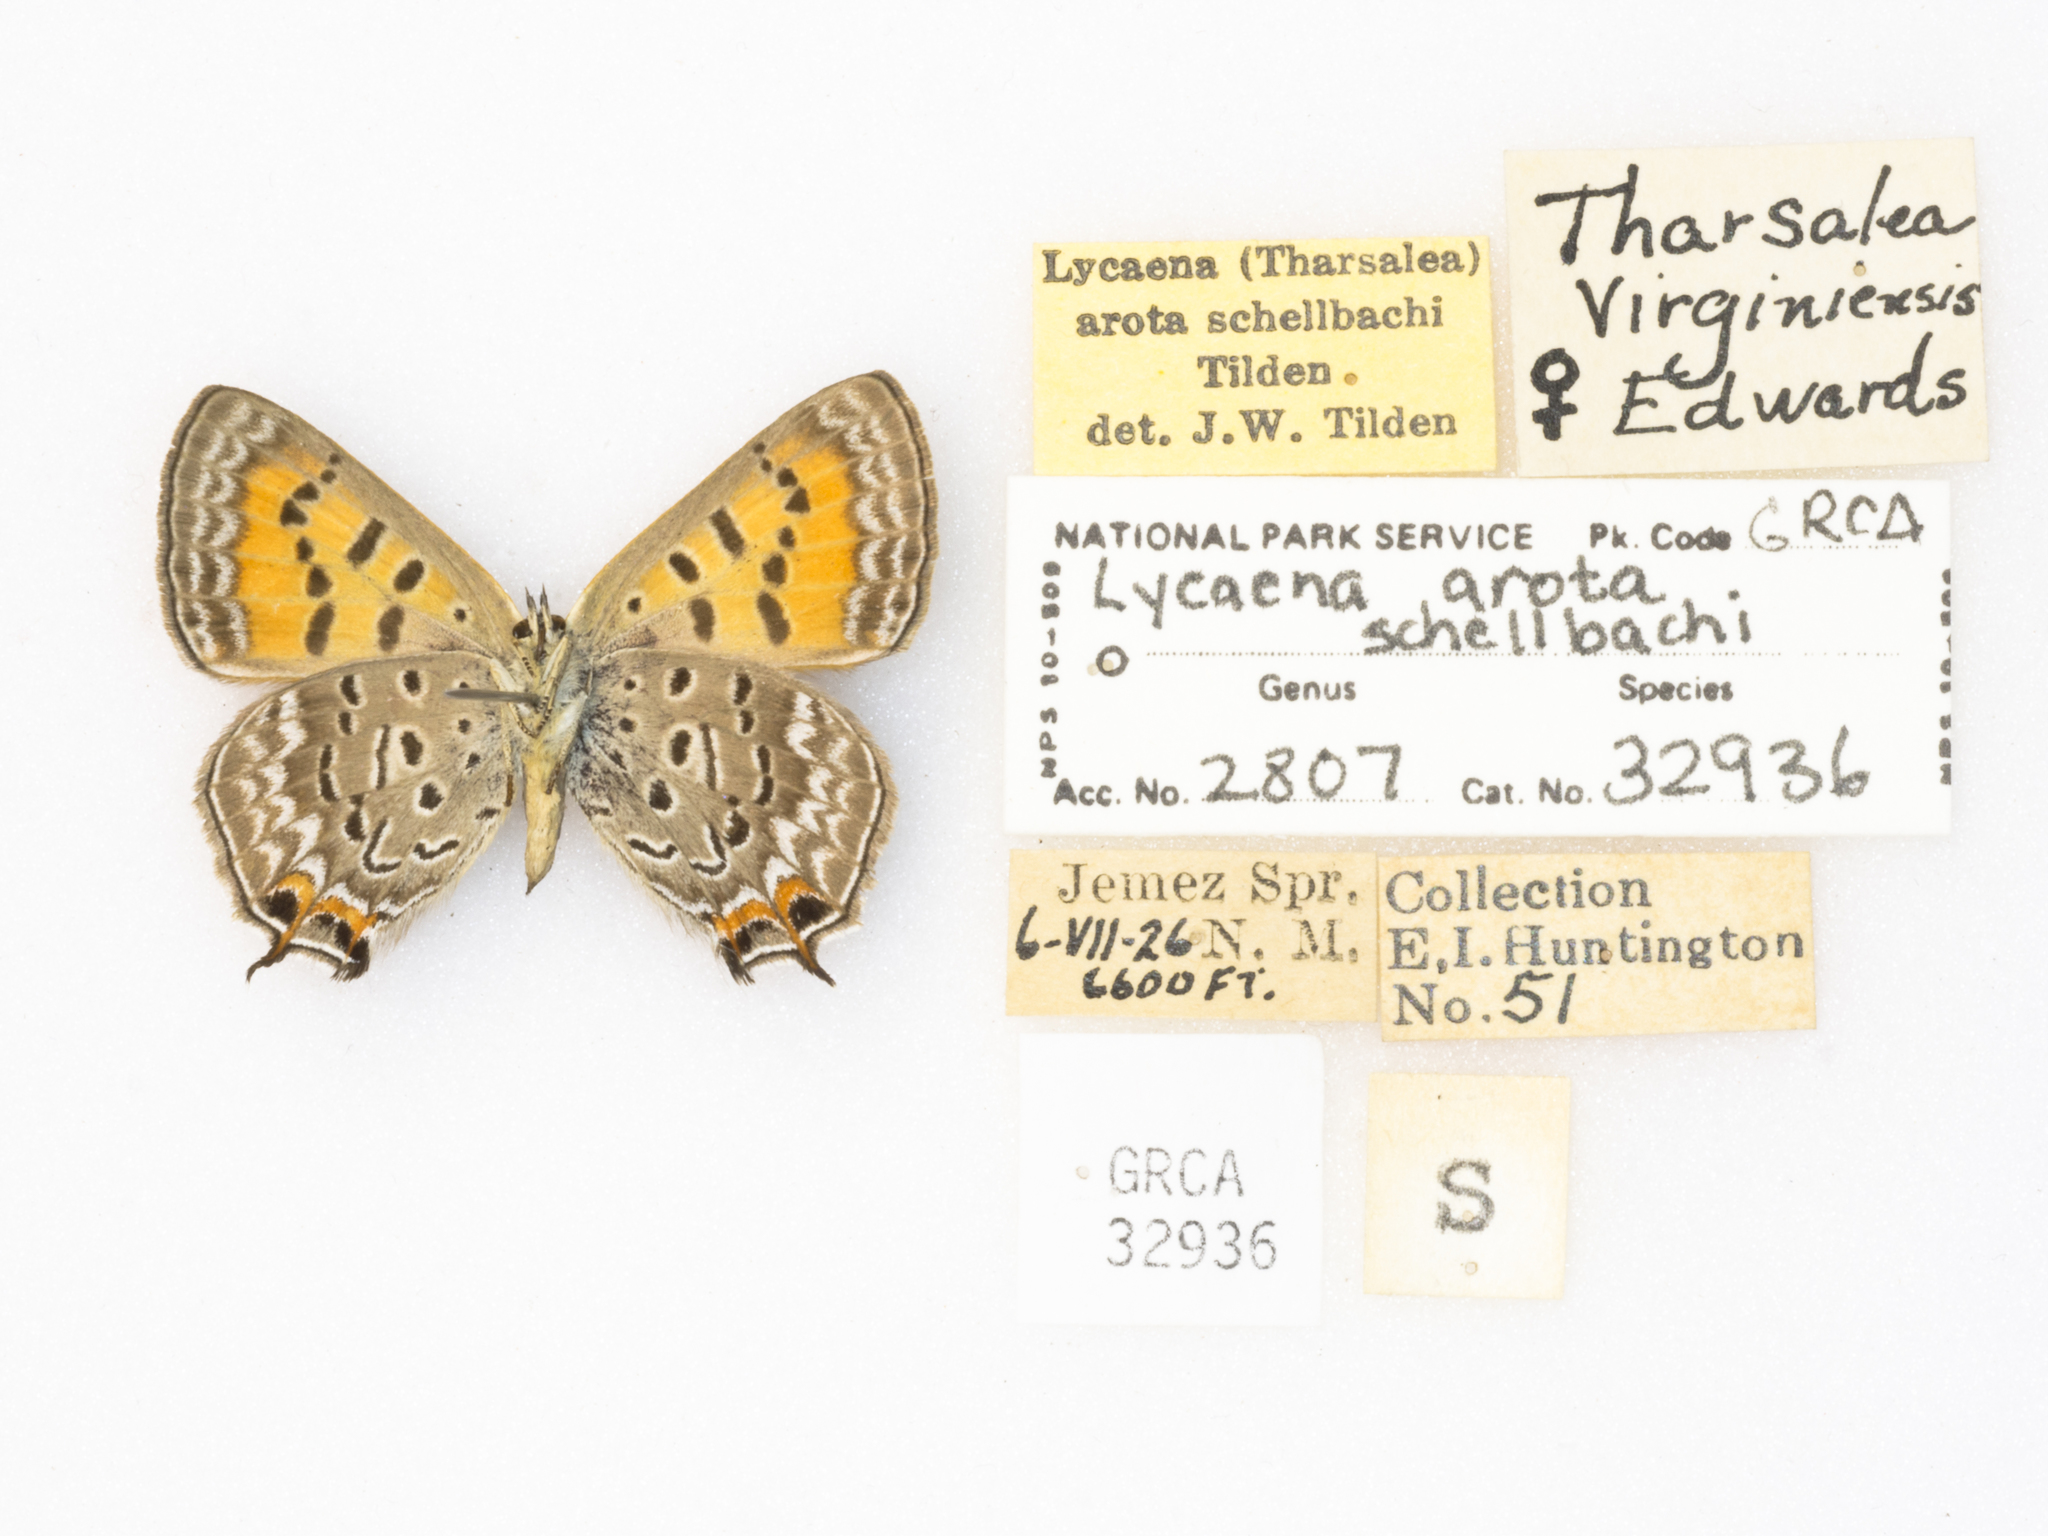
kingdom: Animalia
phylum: Arthropoda
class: Insecta
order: Lepidoptera
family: Lycaenidae
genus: Tharsalea
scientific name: Tharsalea arota
